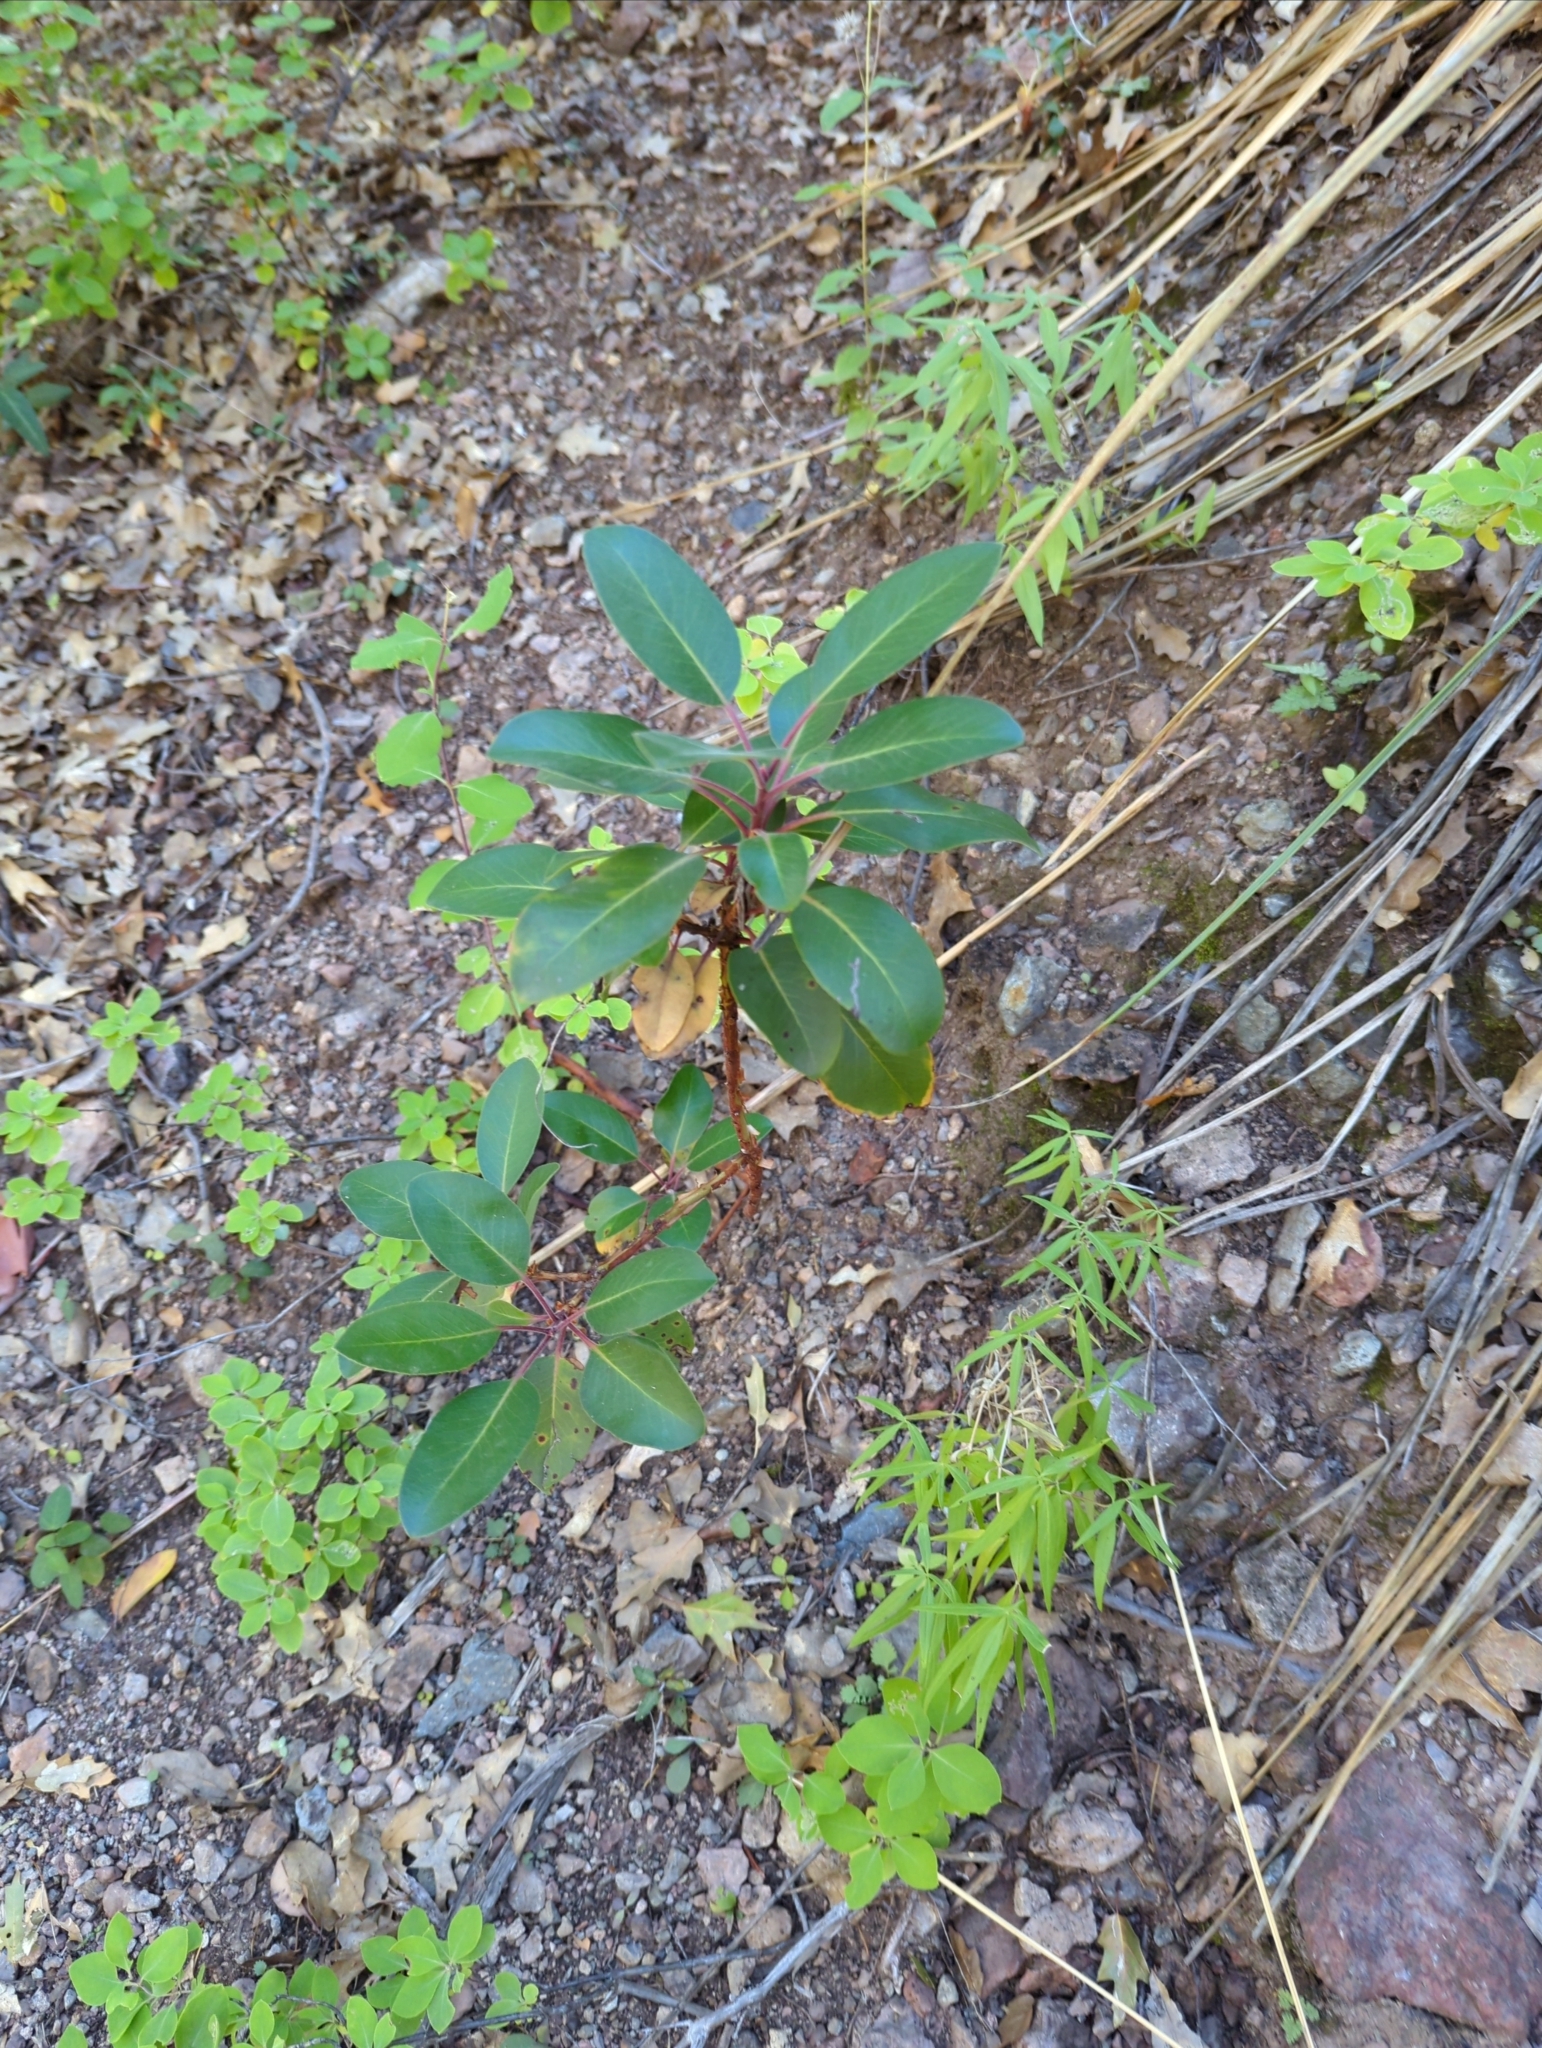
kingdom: Plantae
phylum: Tracheophyta
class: Magnoliopsida
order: Ericales
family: Ericaceae
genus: Arbutus
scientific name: Arbutus xalapensis
